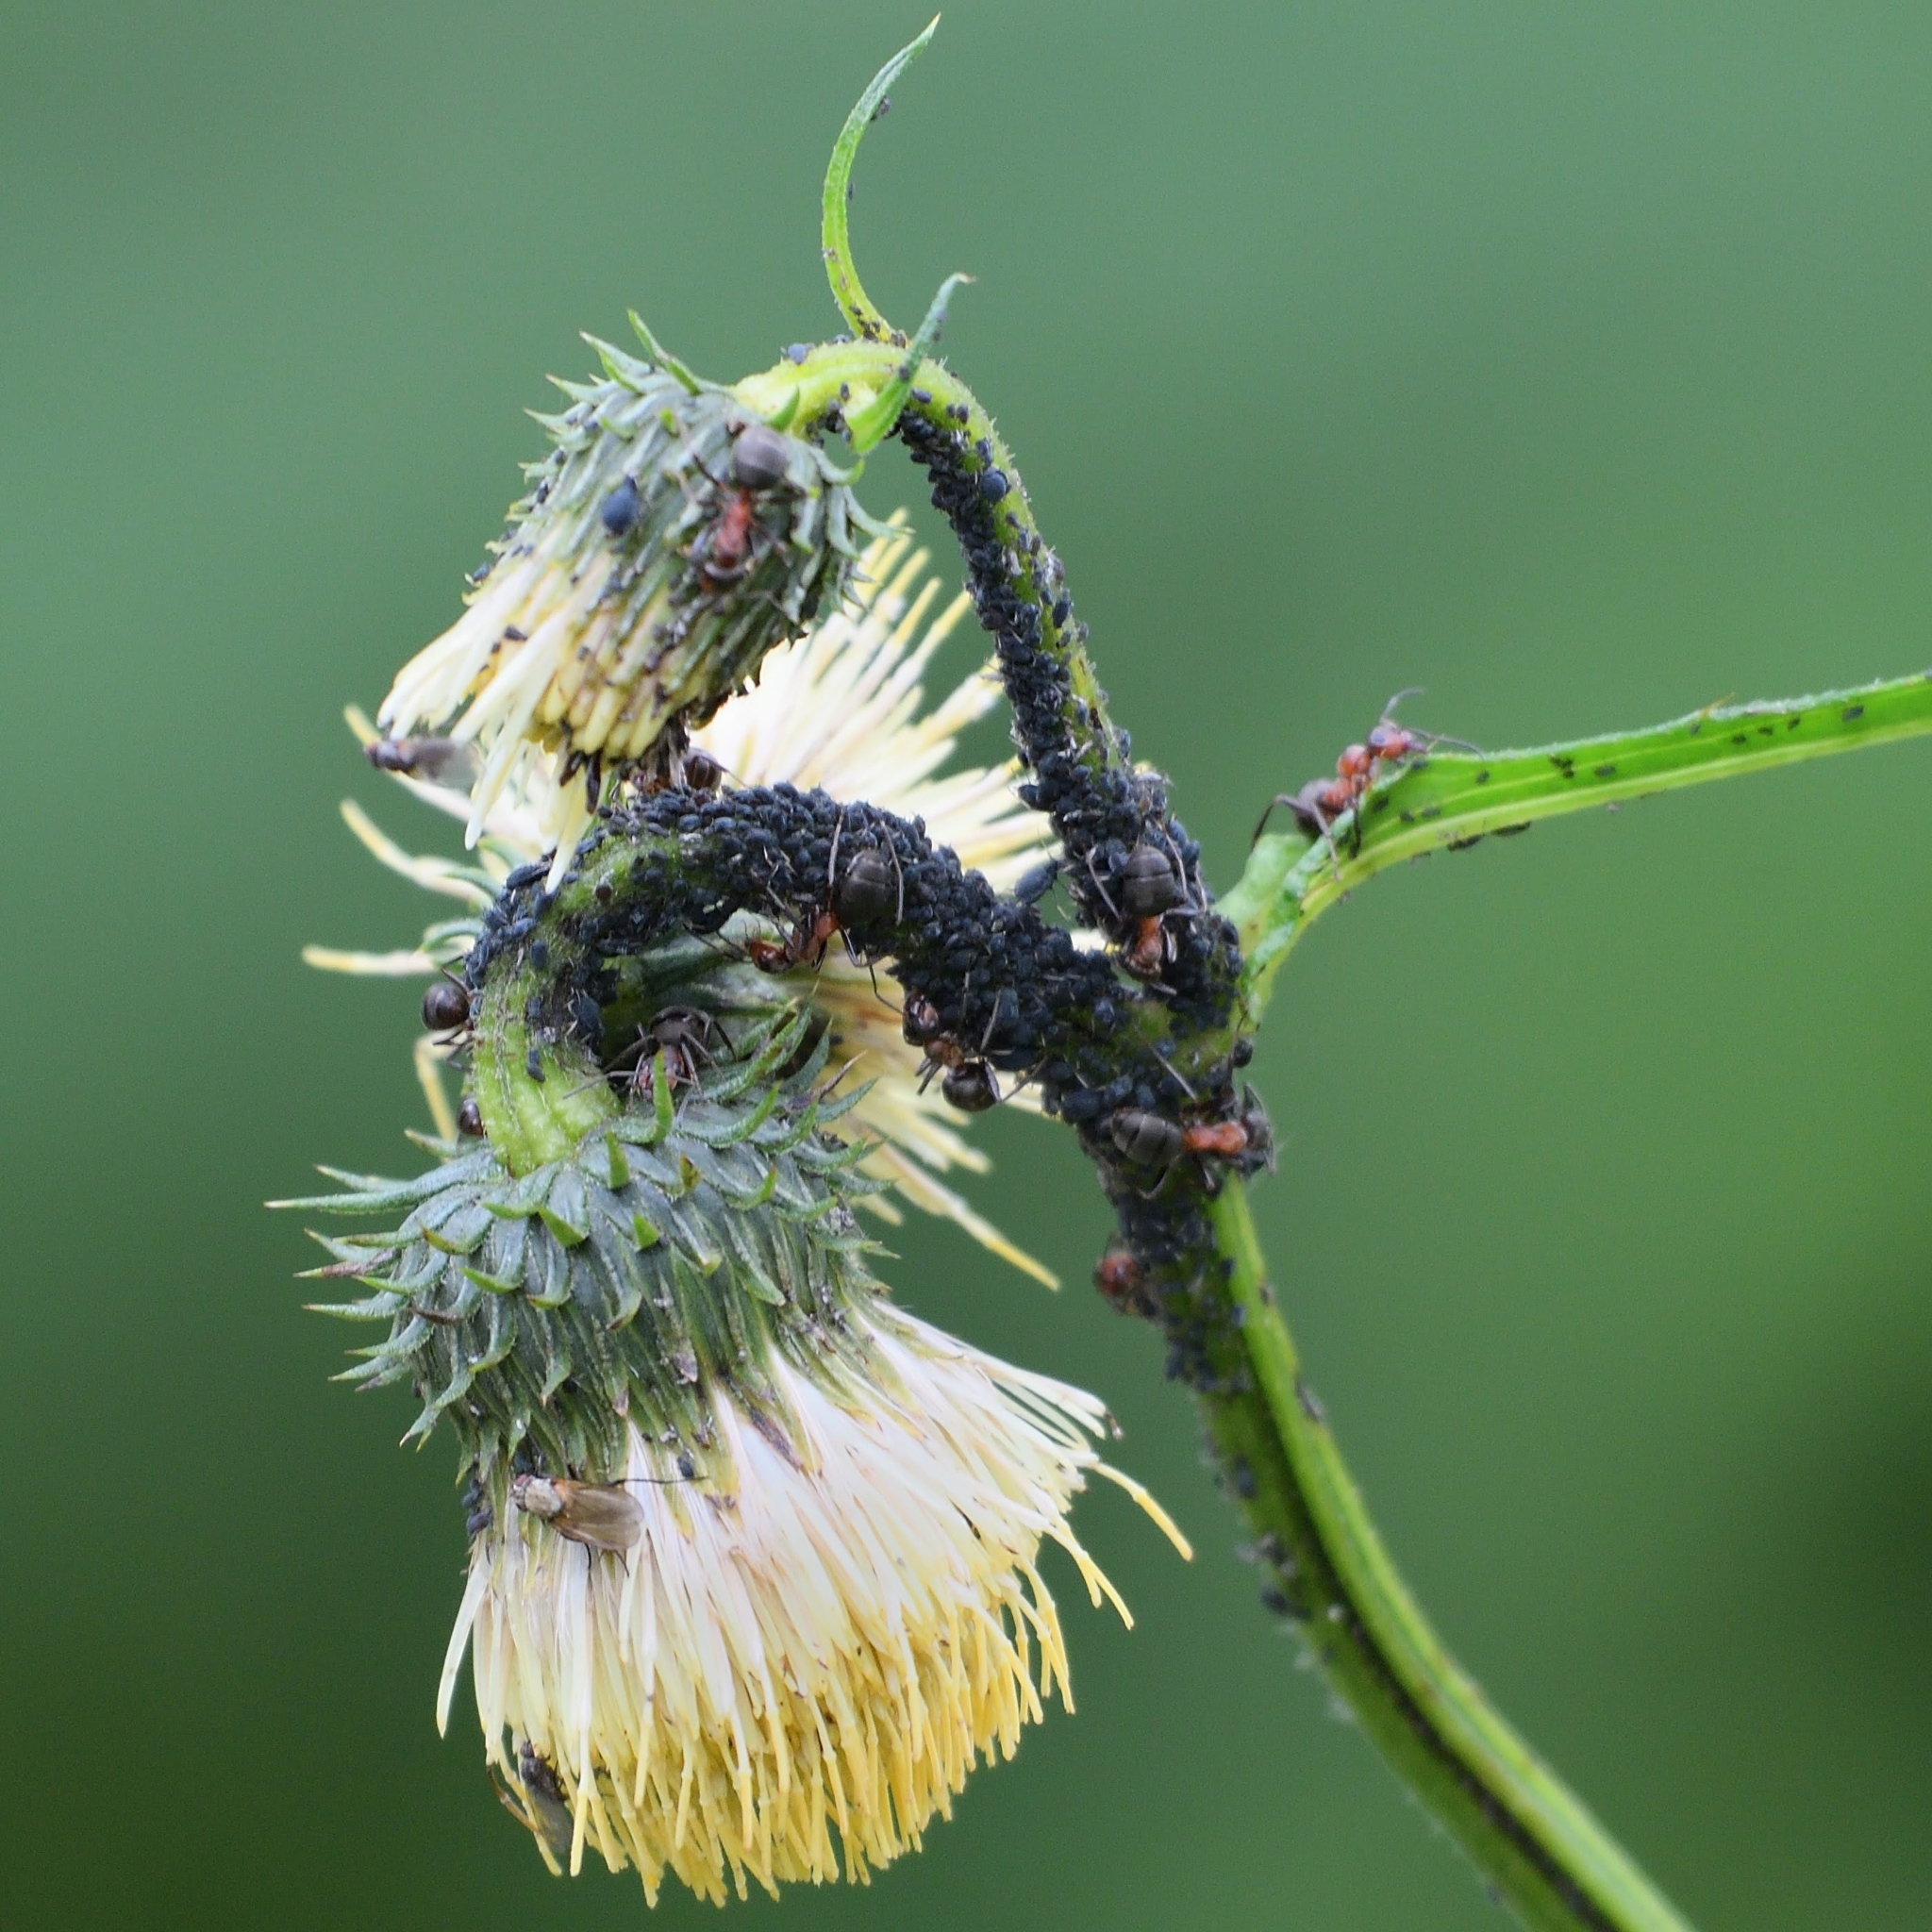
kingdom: Plantae
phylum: Tracheophyta
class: Magnoliopsida
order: Asterales
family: Asteraceae
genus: Cirsium
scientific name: Cirsium erisithales
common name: Yellow thistle
